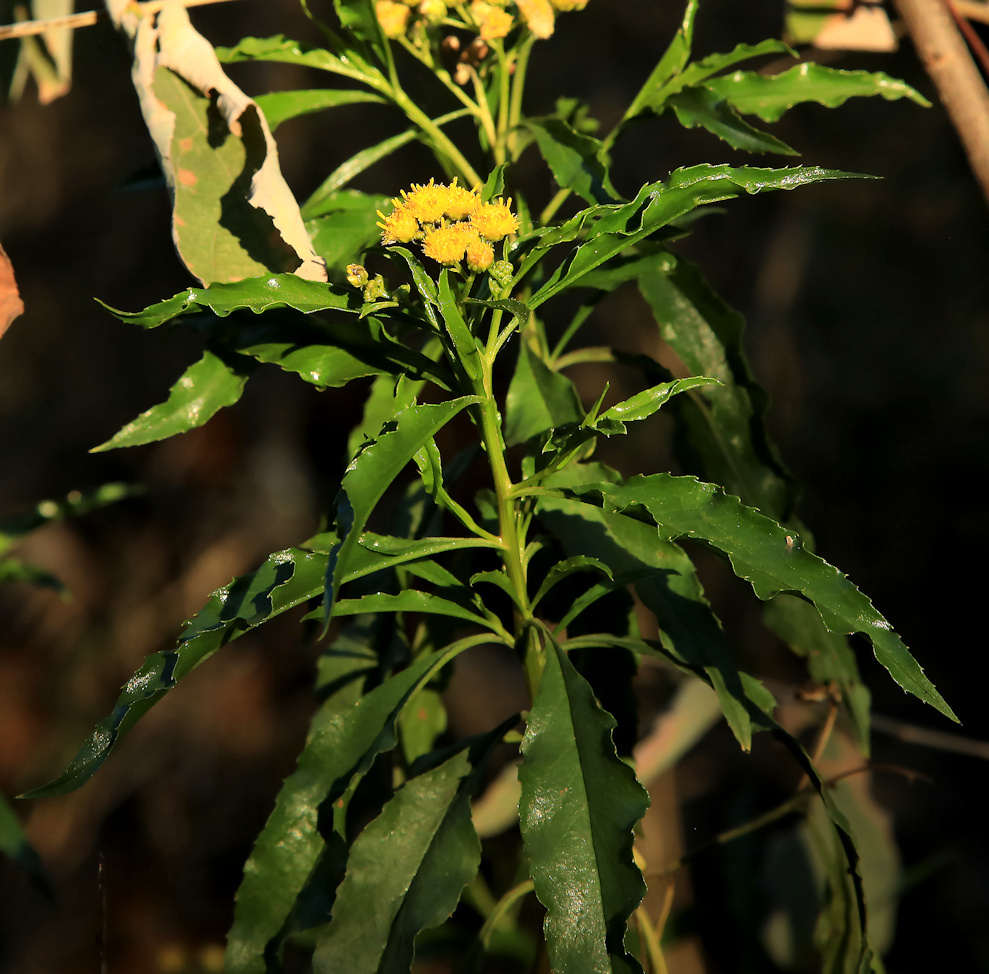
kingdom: Plantae
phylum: Tracheophyta
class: Magnoliopsida
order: Asterales
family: Asteraceae
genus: Psiadia
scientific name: Psiadia punctulata
